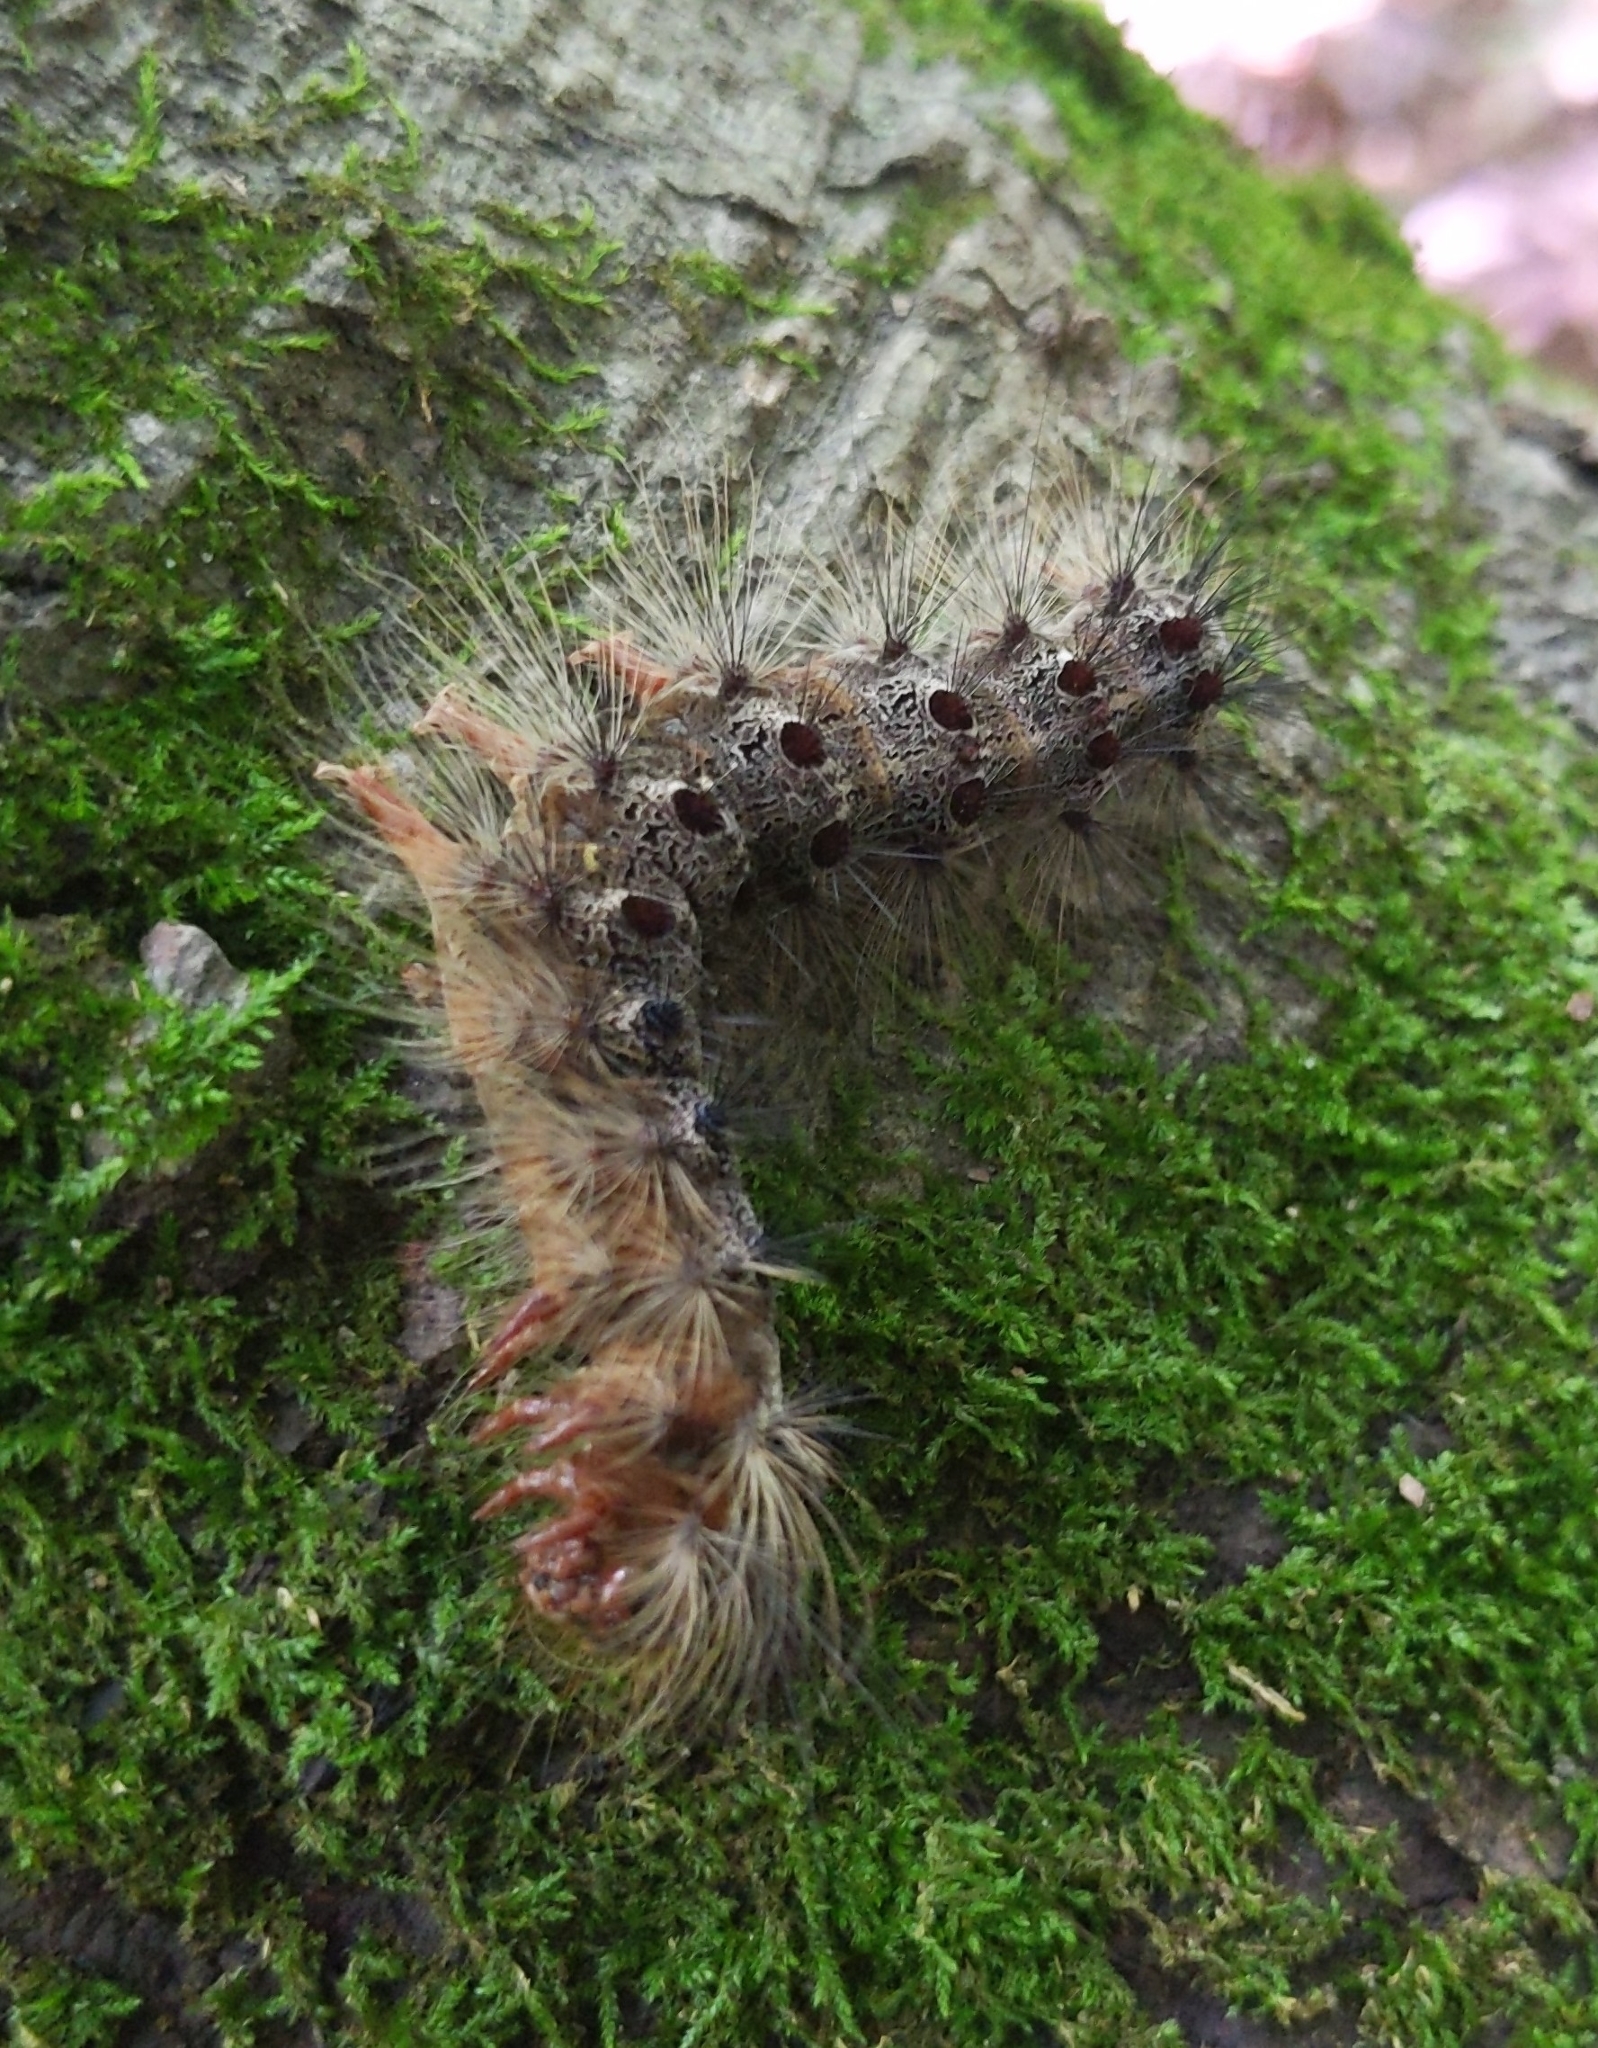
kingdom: Animalia
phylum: Arthropoda
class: Insecta
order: Lepidoptera
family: Erebidae
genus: Lymantria
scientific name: Lymantria dispar
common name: Gypsy moth
